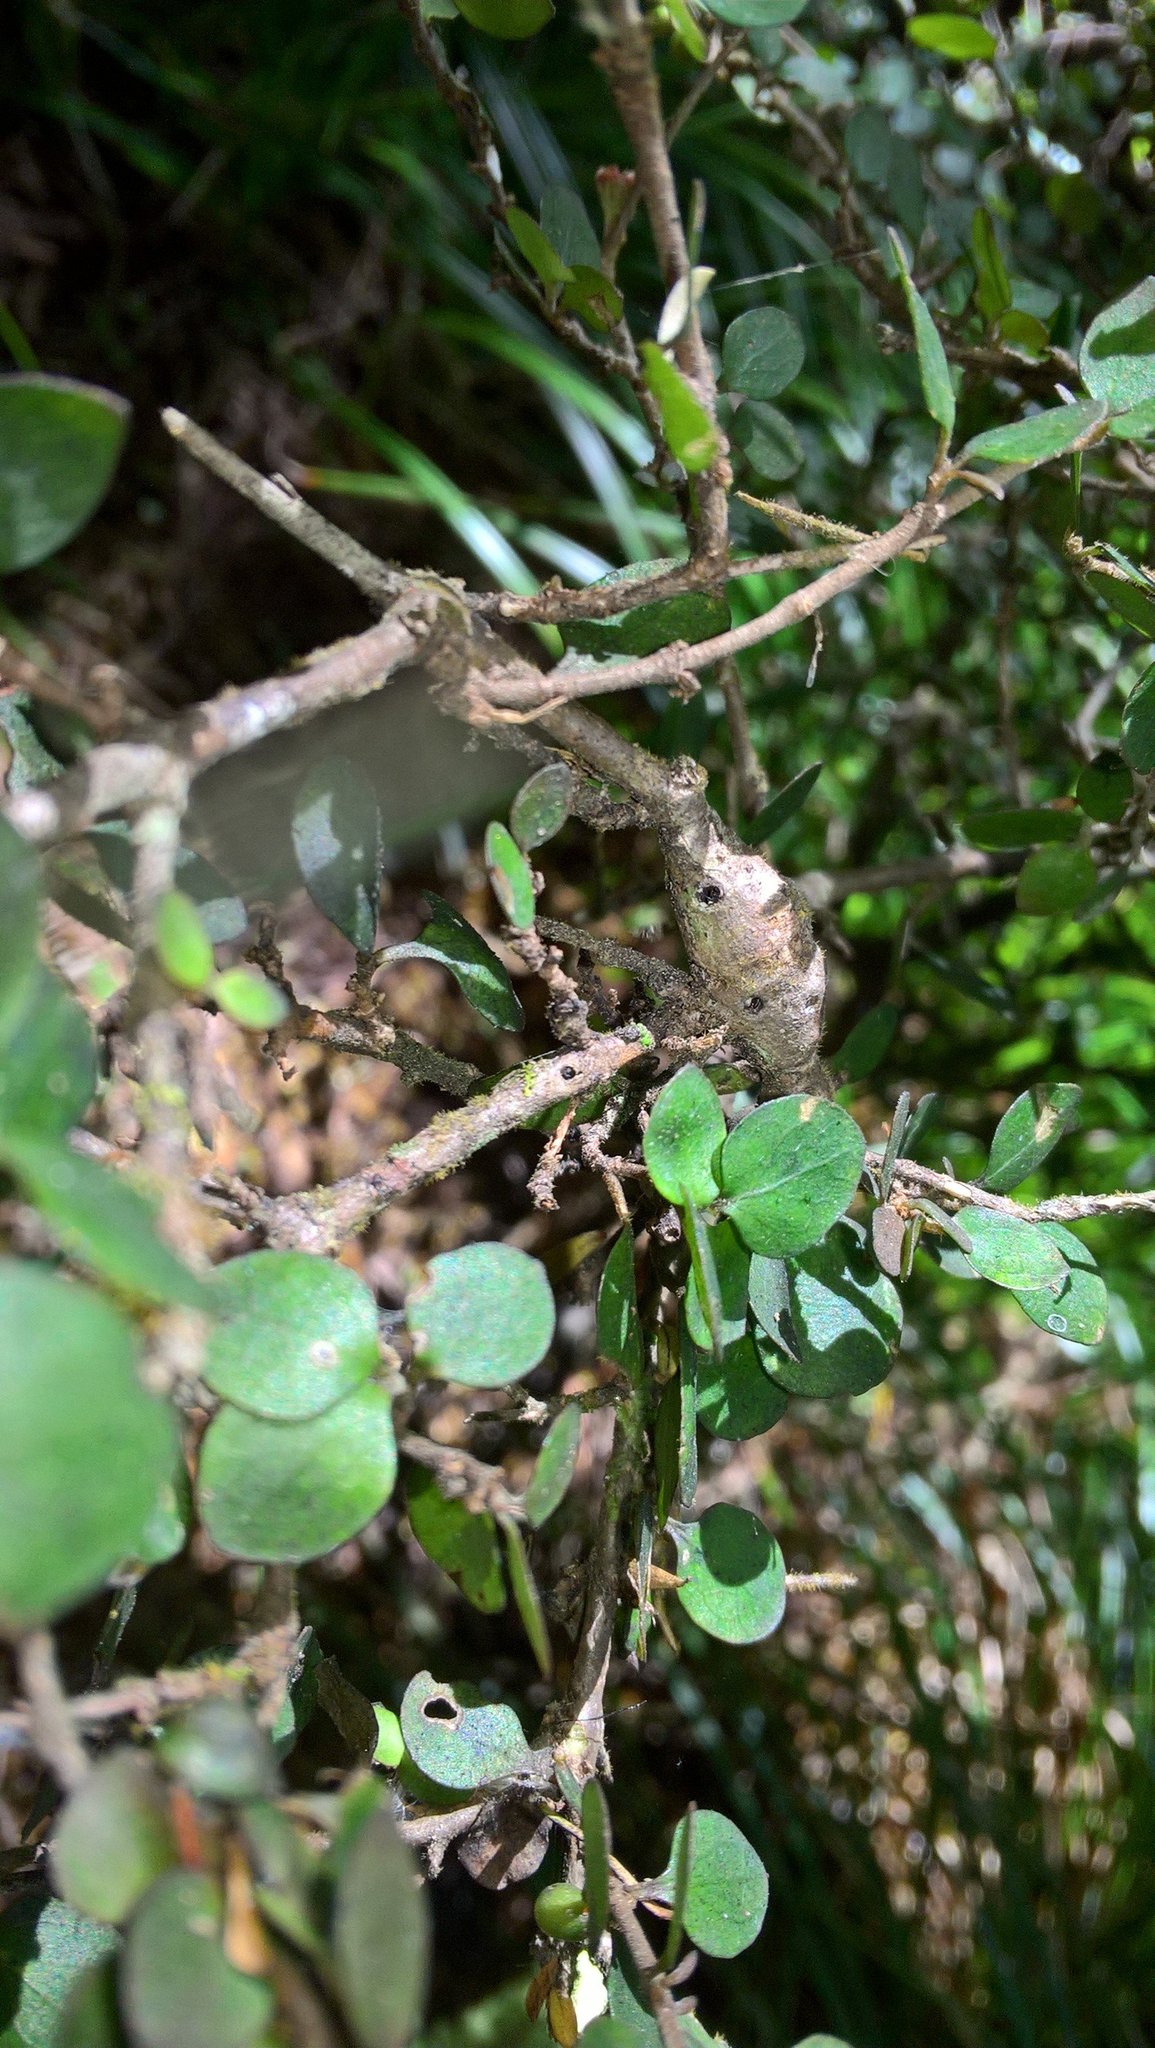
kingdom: Plantae
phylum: Tracheophyta
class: Magnoliopsida
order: Gentianales
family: Rubiaceae
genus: Coprosma
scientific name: Coprosma rhamnoides
